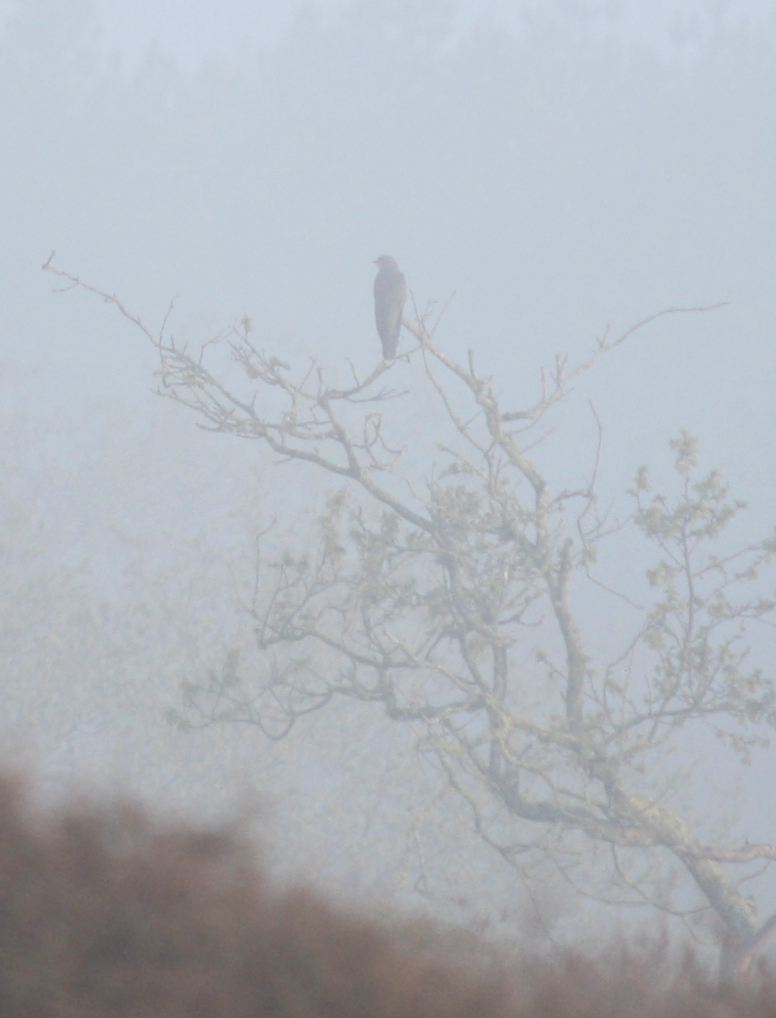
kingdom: Animalia
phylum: Chordata
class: Aves
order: Cuculiformes
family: Cuculidae
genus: Cuculus
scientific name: Cuculus canorus
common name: Common cuckoo
